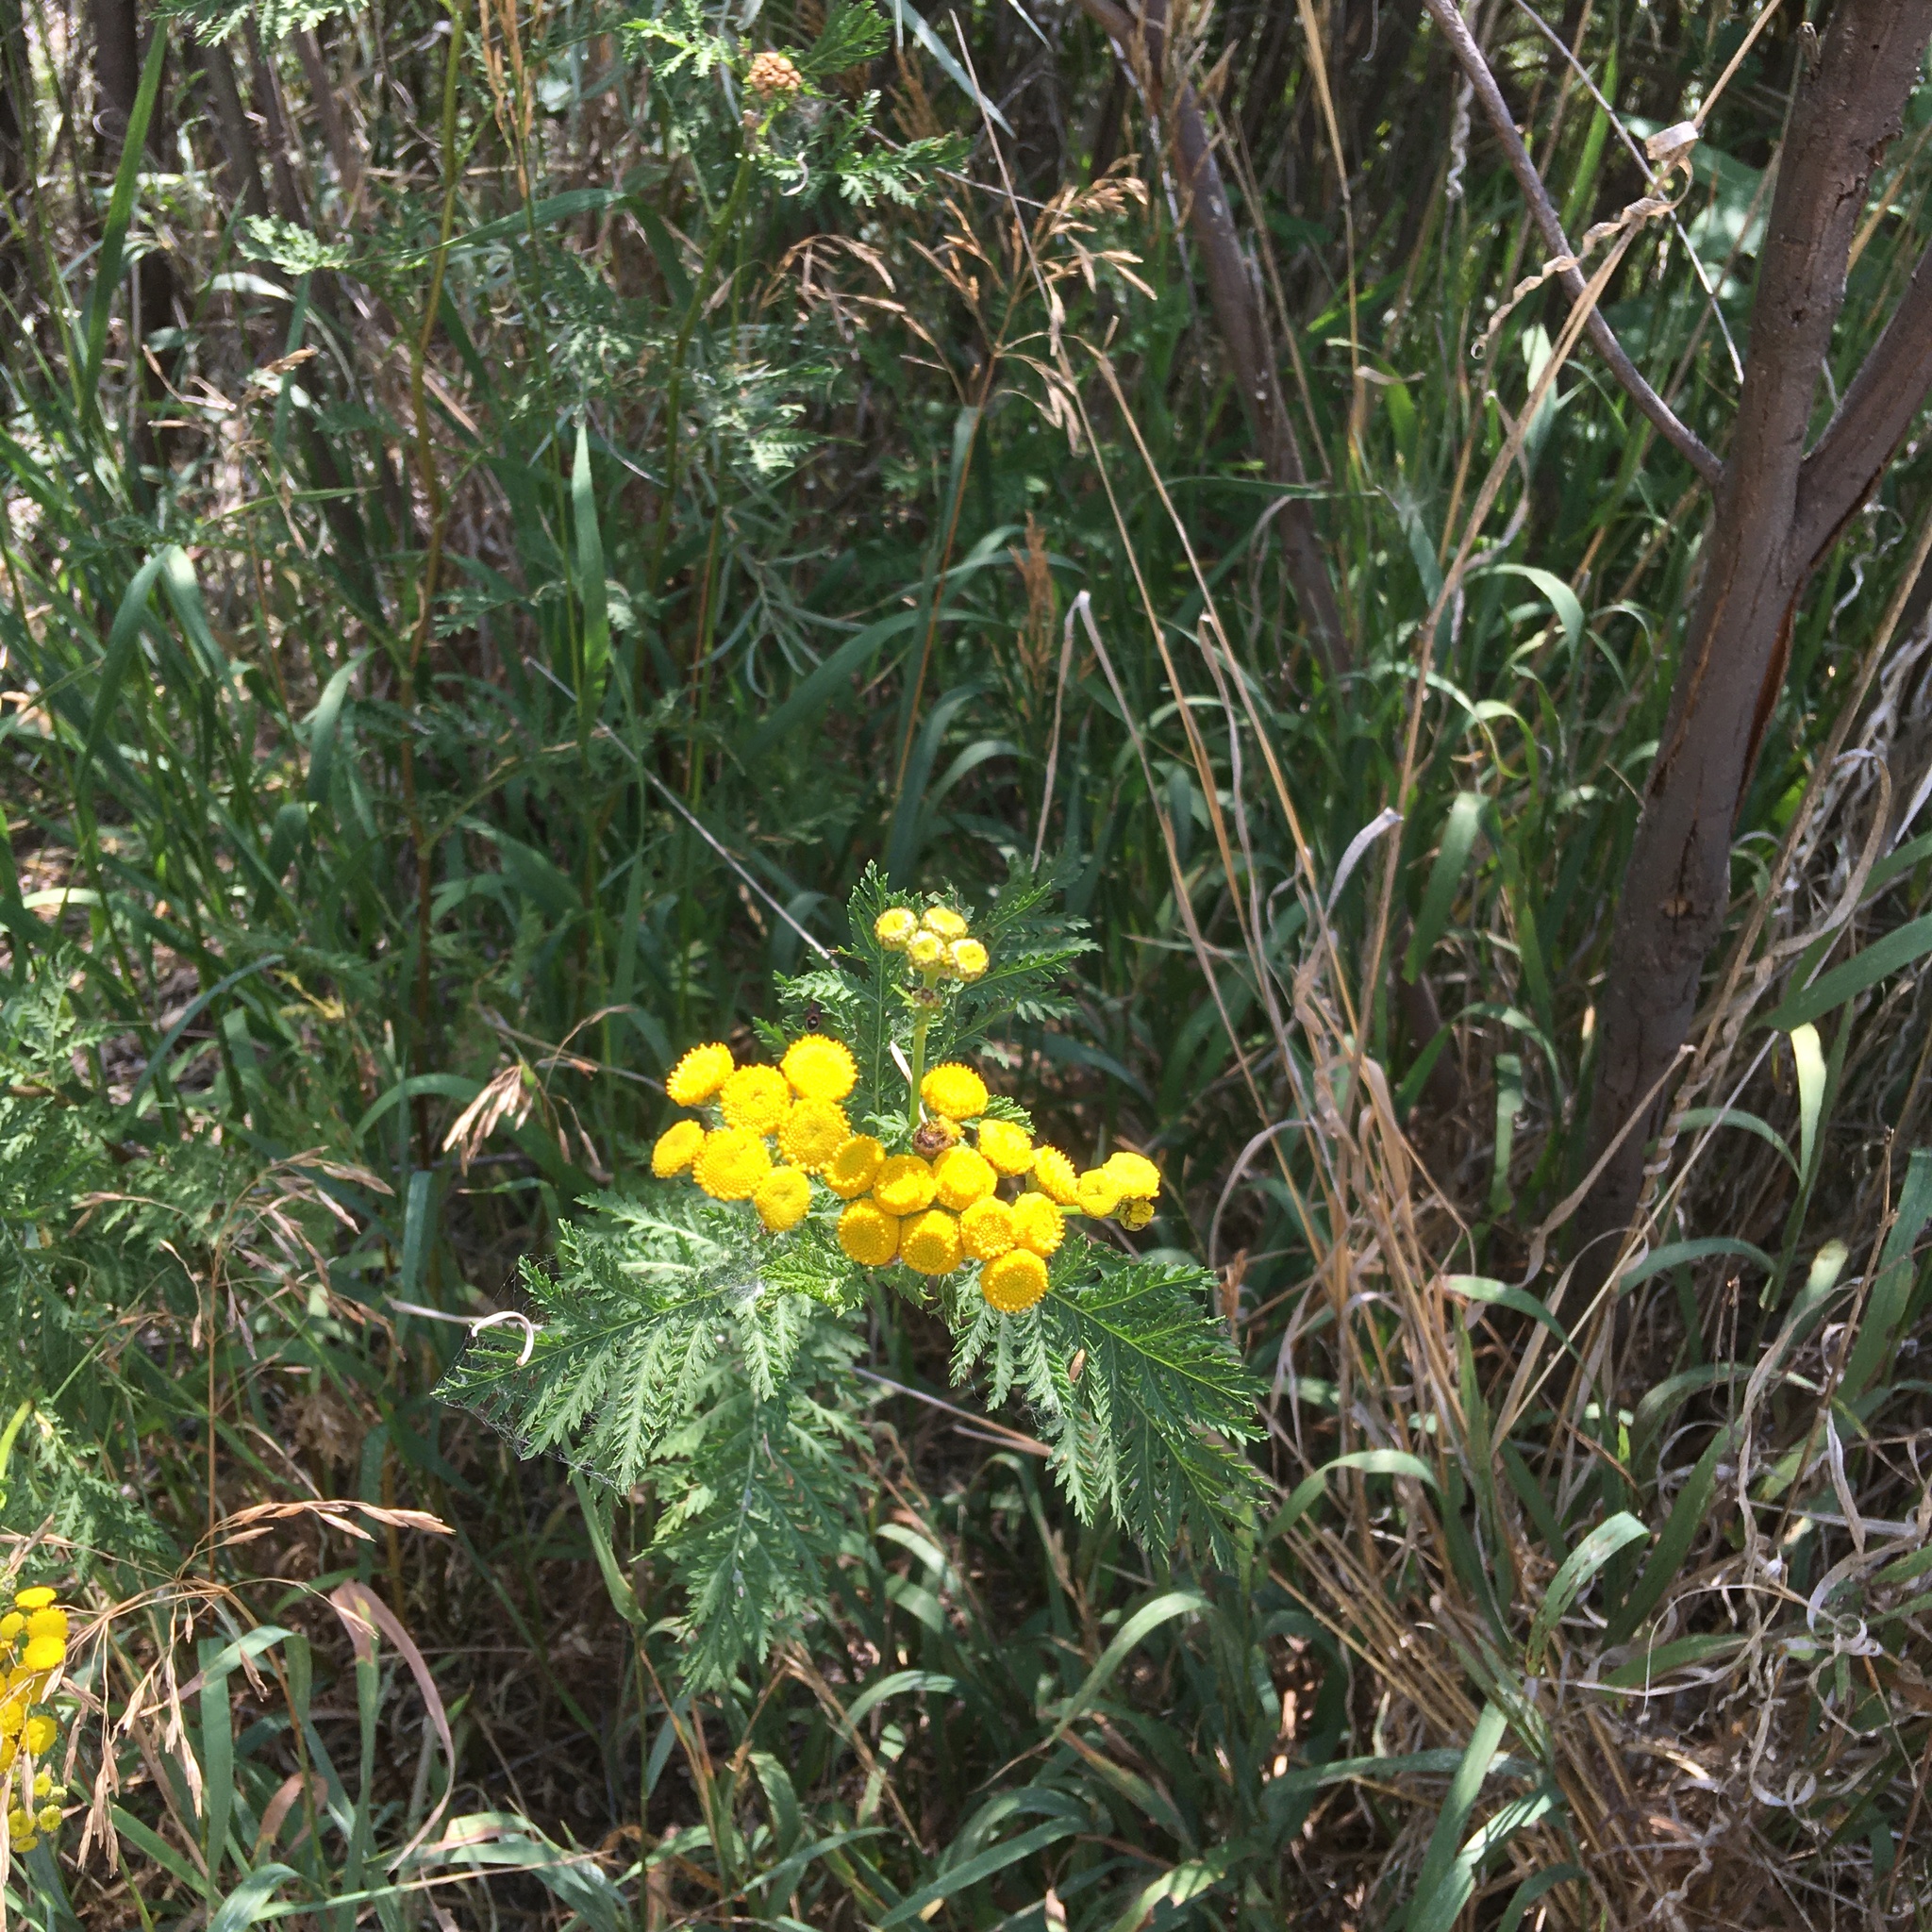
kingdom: Plantae
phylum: Tracheophyta
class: Magnoliopsida
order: Asterales
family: Asteraceae
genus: Tanacetum
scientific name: Tanacetum vulgare
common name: Common tansy
